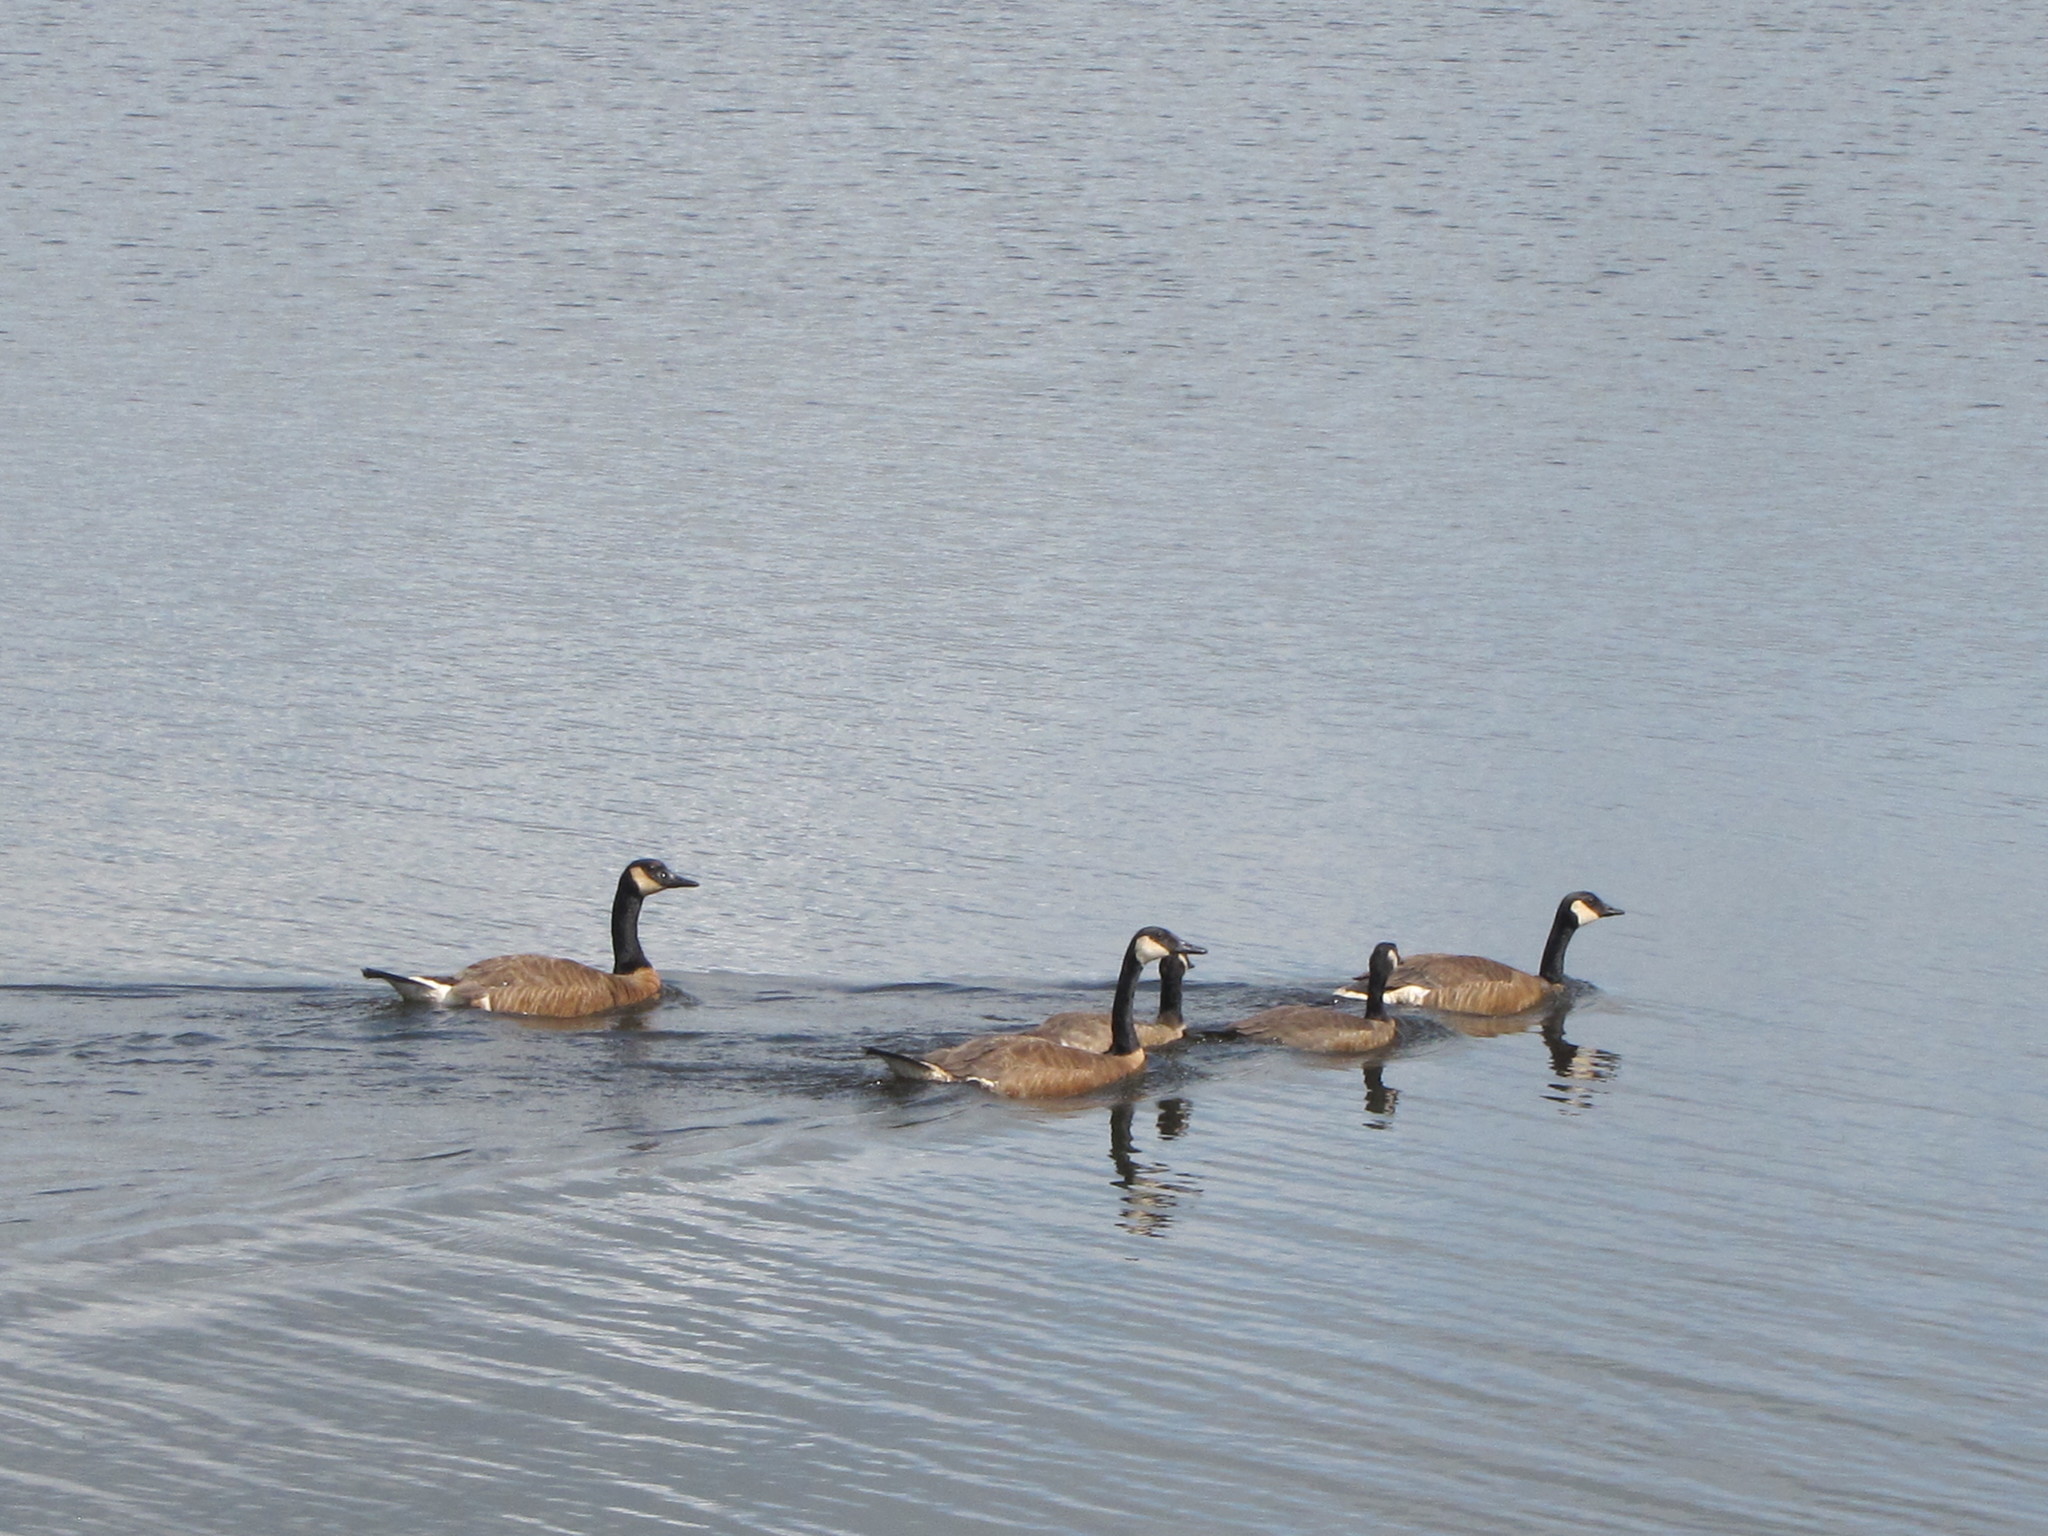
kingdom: Animalia
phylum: Chordata
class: Aves
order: Anseriformes
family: Anatidae
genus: Branta
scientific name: Branta canadensis
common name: Canada goose
